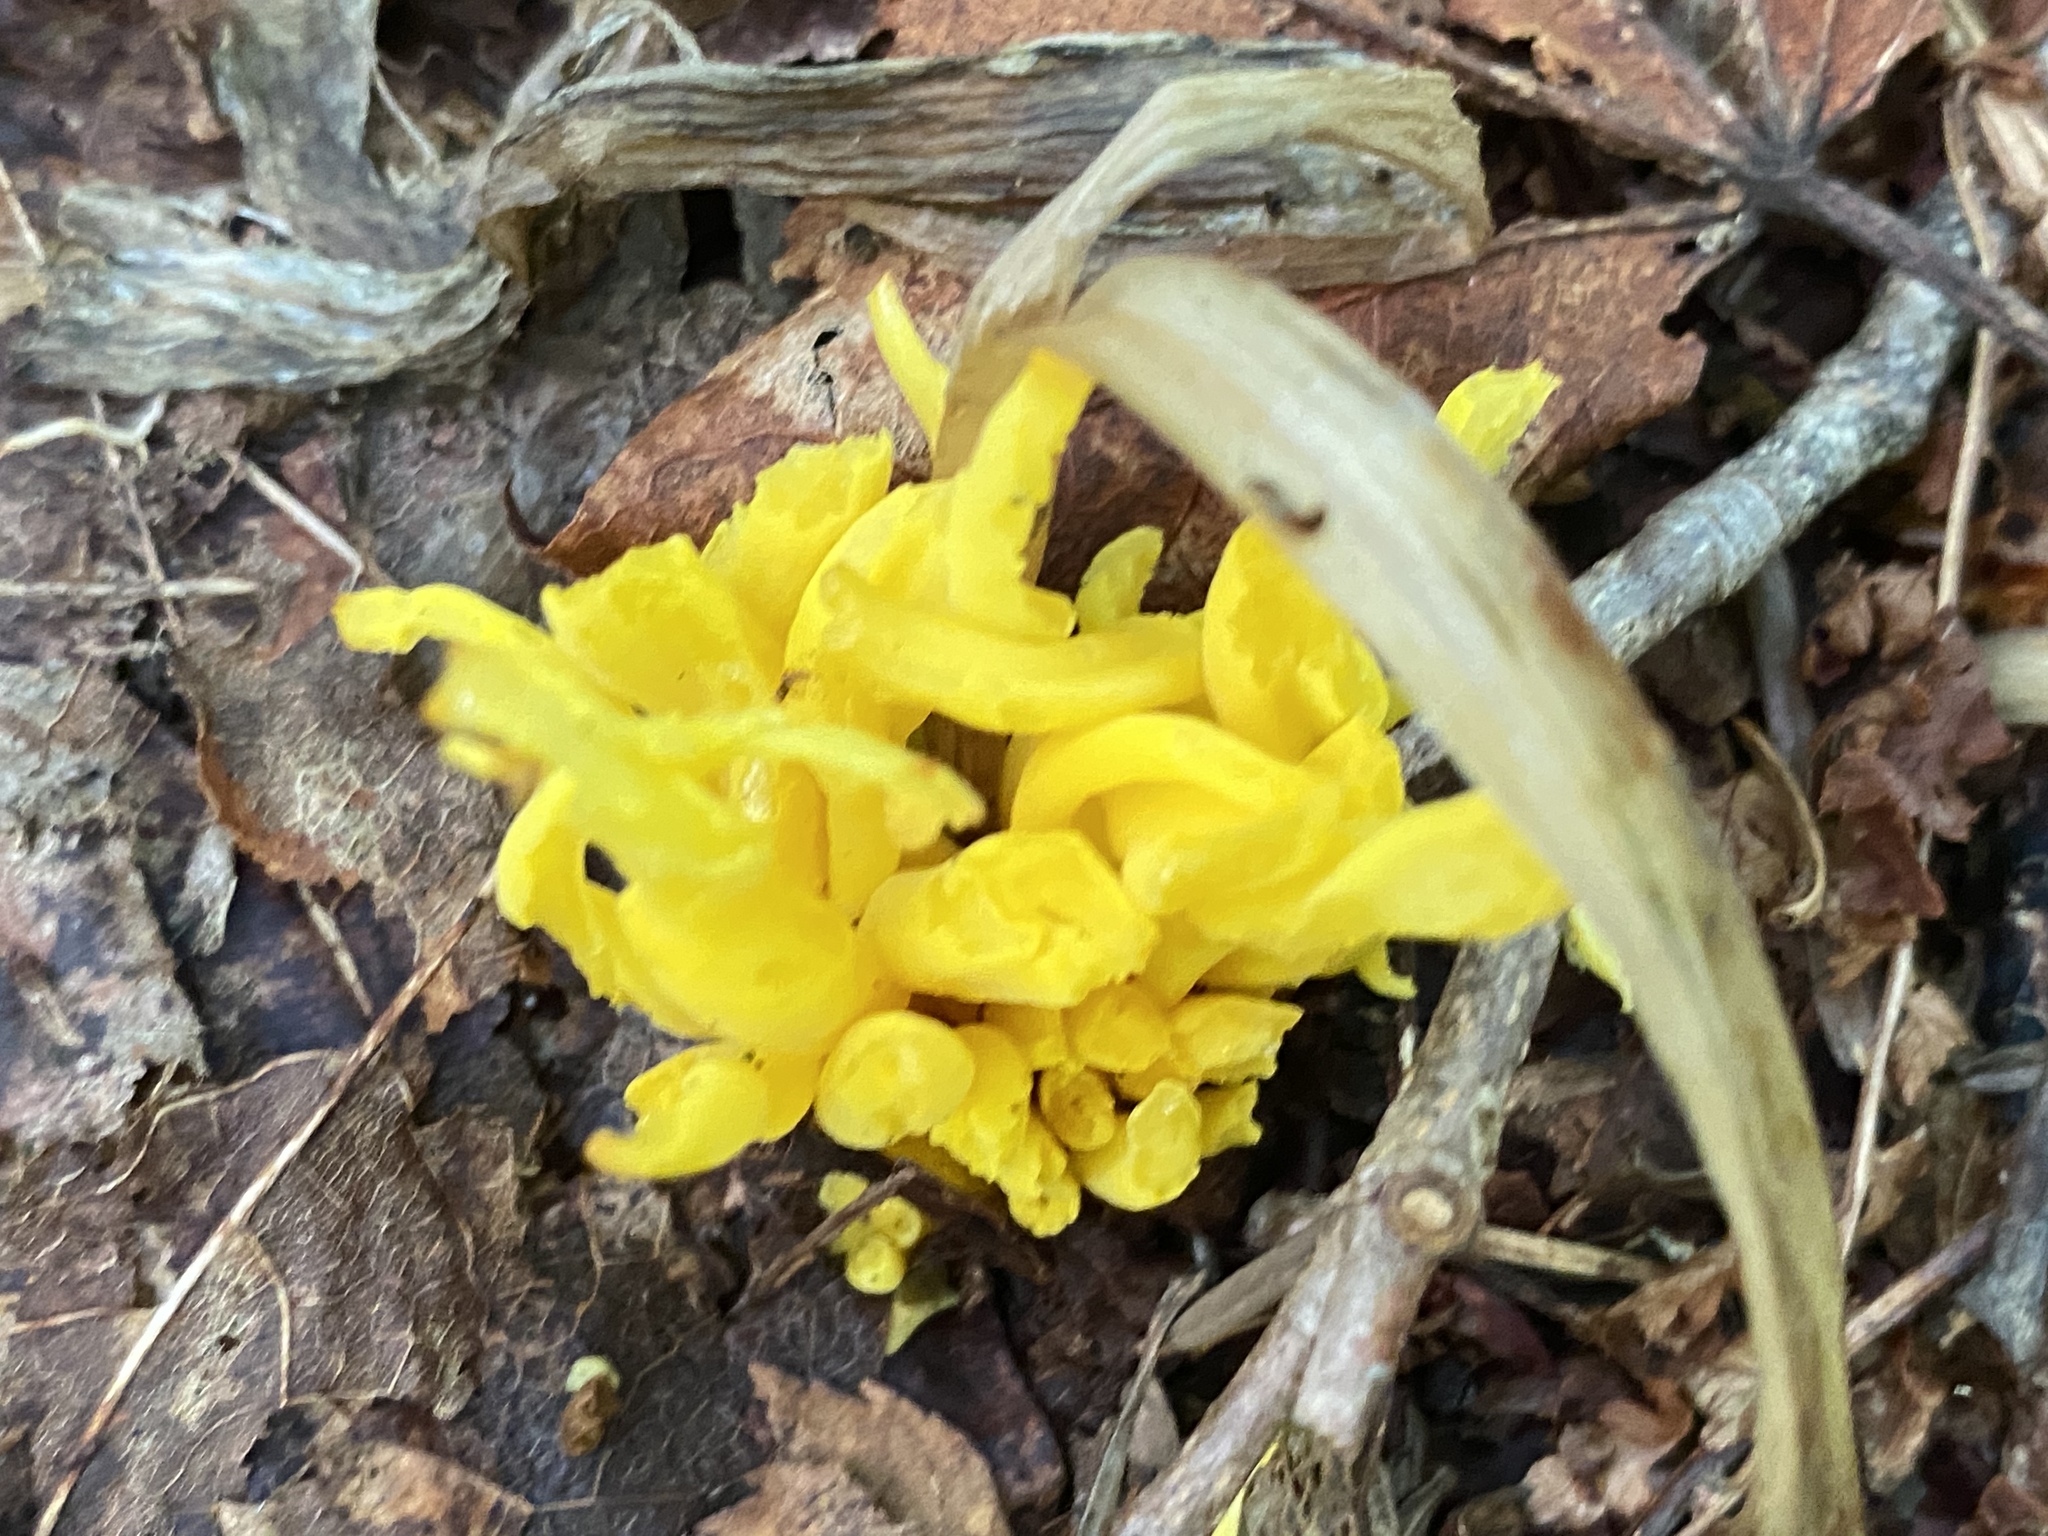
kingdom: Fungi
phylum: Basidiomycota
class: Agaricomycetes
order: Agaricales
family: Clavariaceae
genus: Clavulinopsis
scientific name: Clavulinopsis fusiformis
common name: Golden spindles
